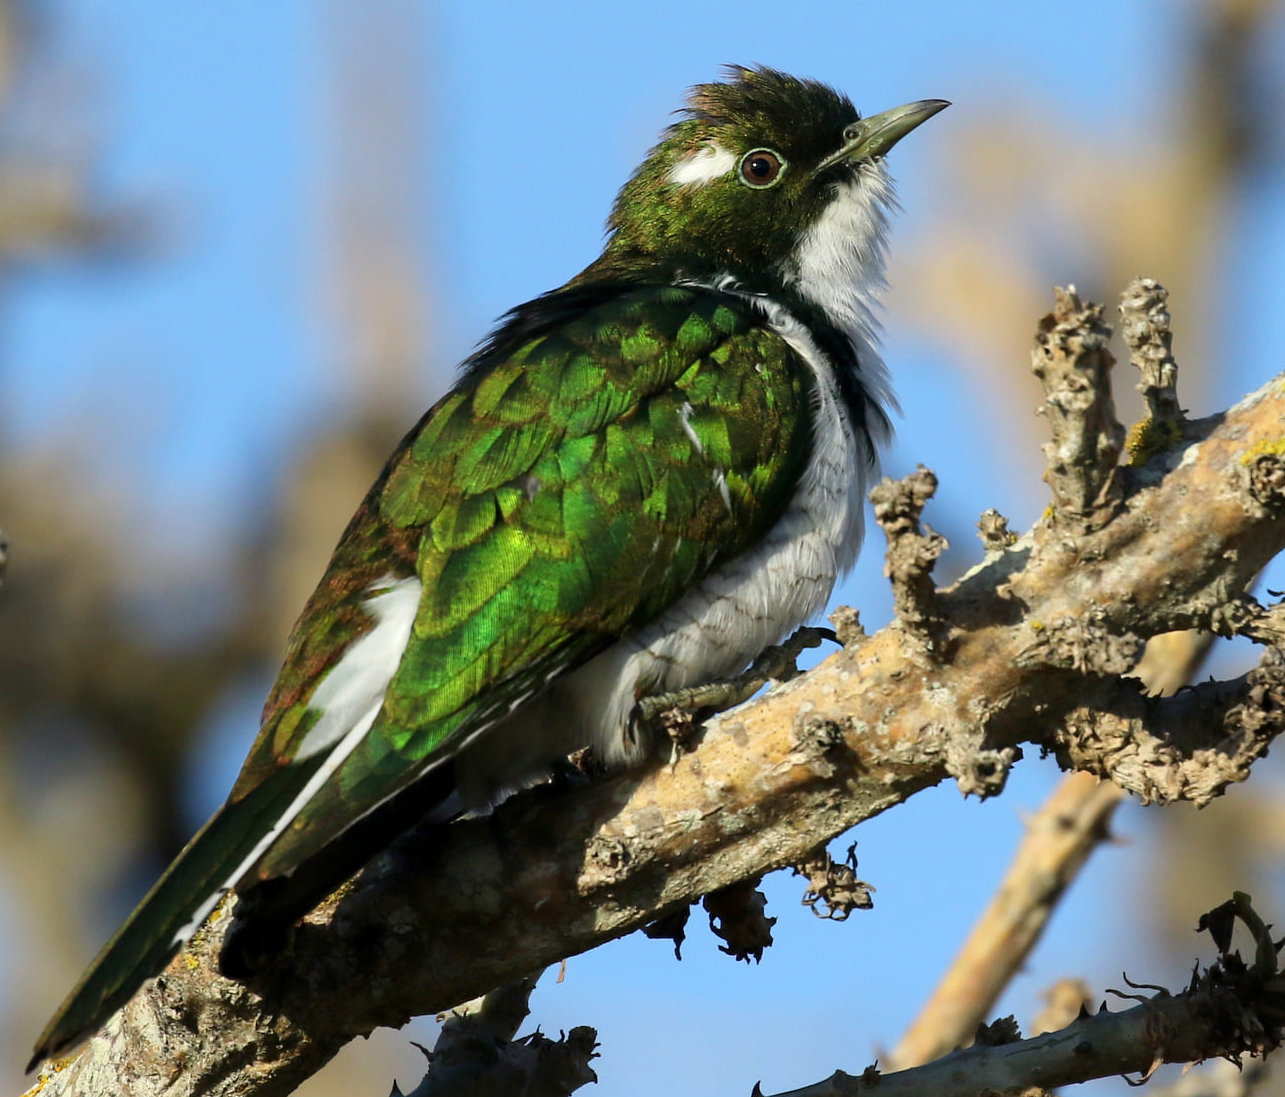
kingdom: Animalia
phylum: Chordata
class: Aves
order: Cuculiformes
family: Cuculidae
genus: Chrysococcyx
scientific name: Chrysococcyx klaas
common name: Klaas's cuckoo
